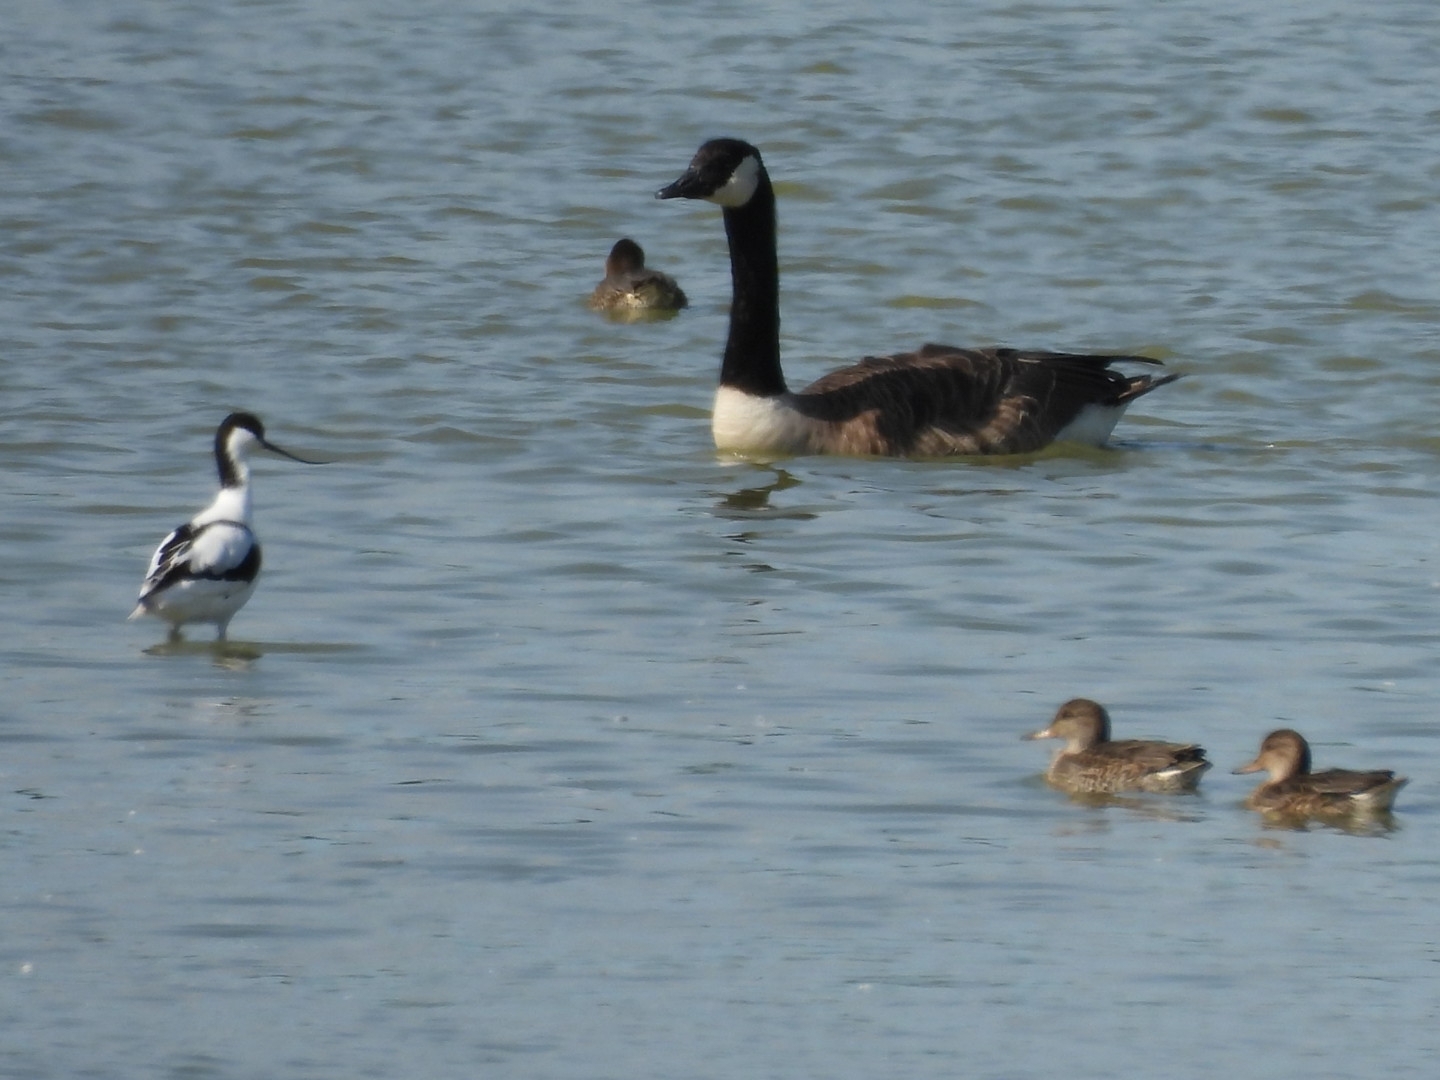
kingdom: Animalia
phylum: Chordata
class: Aves
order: Anseriformes
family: Anatidae
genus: Branta
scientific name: Branta canadensis
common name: Canada goose
